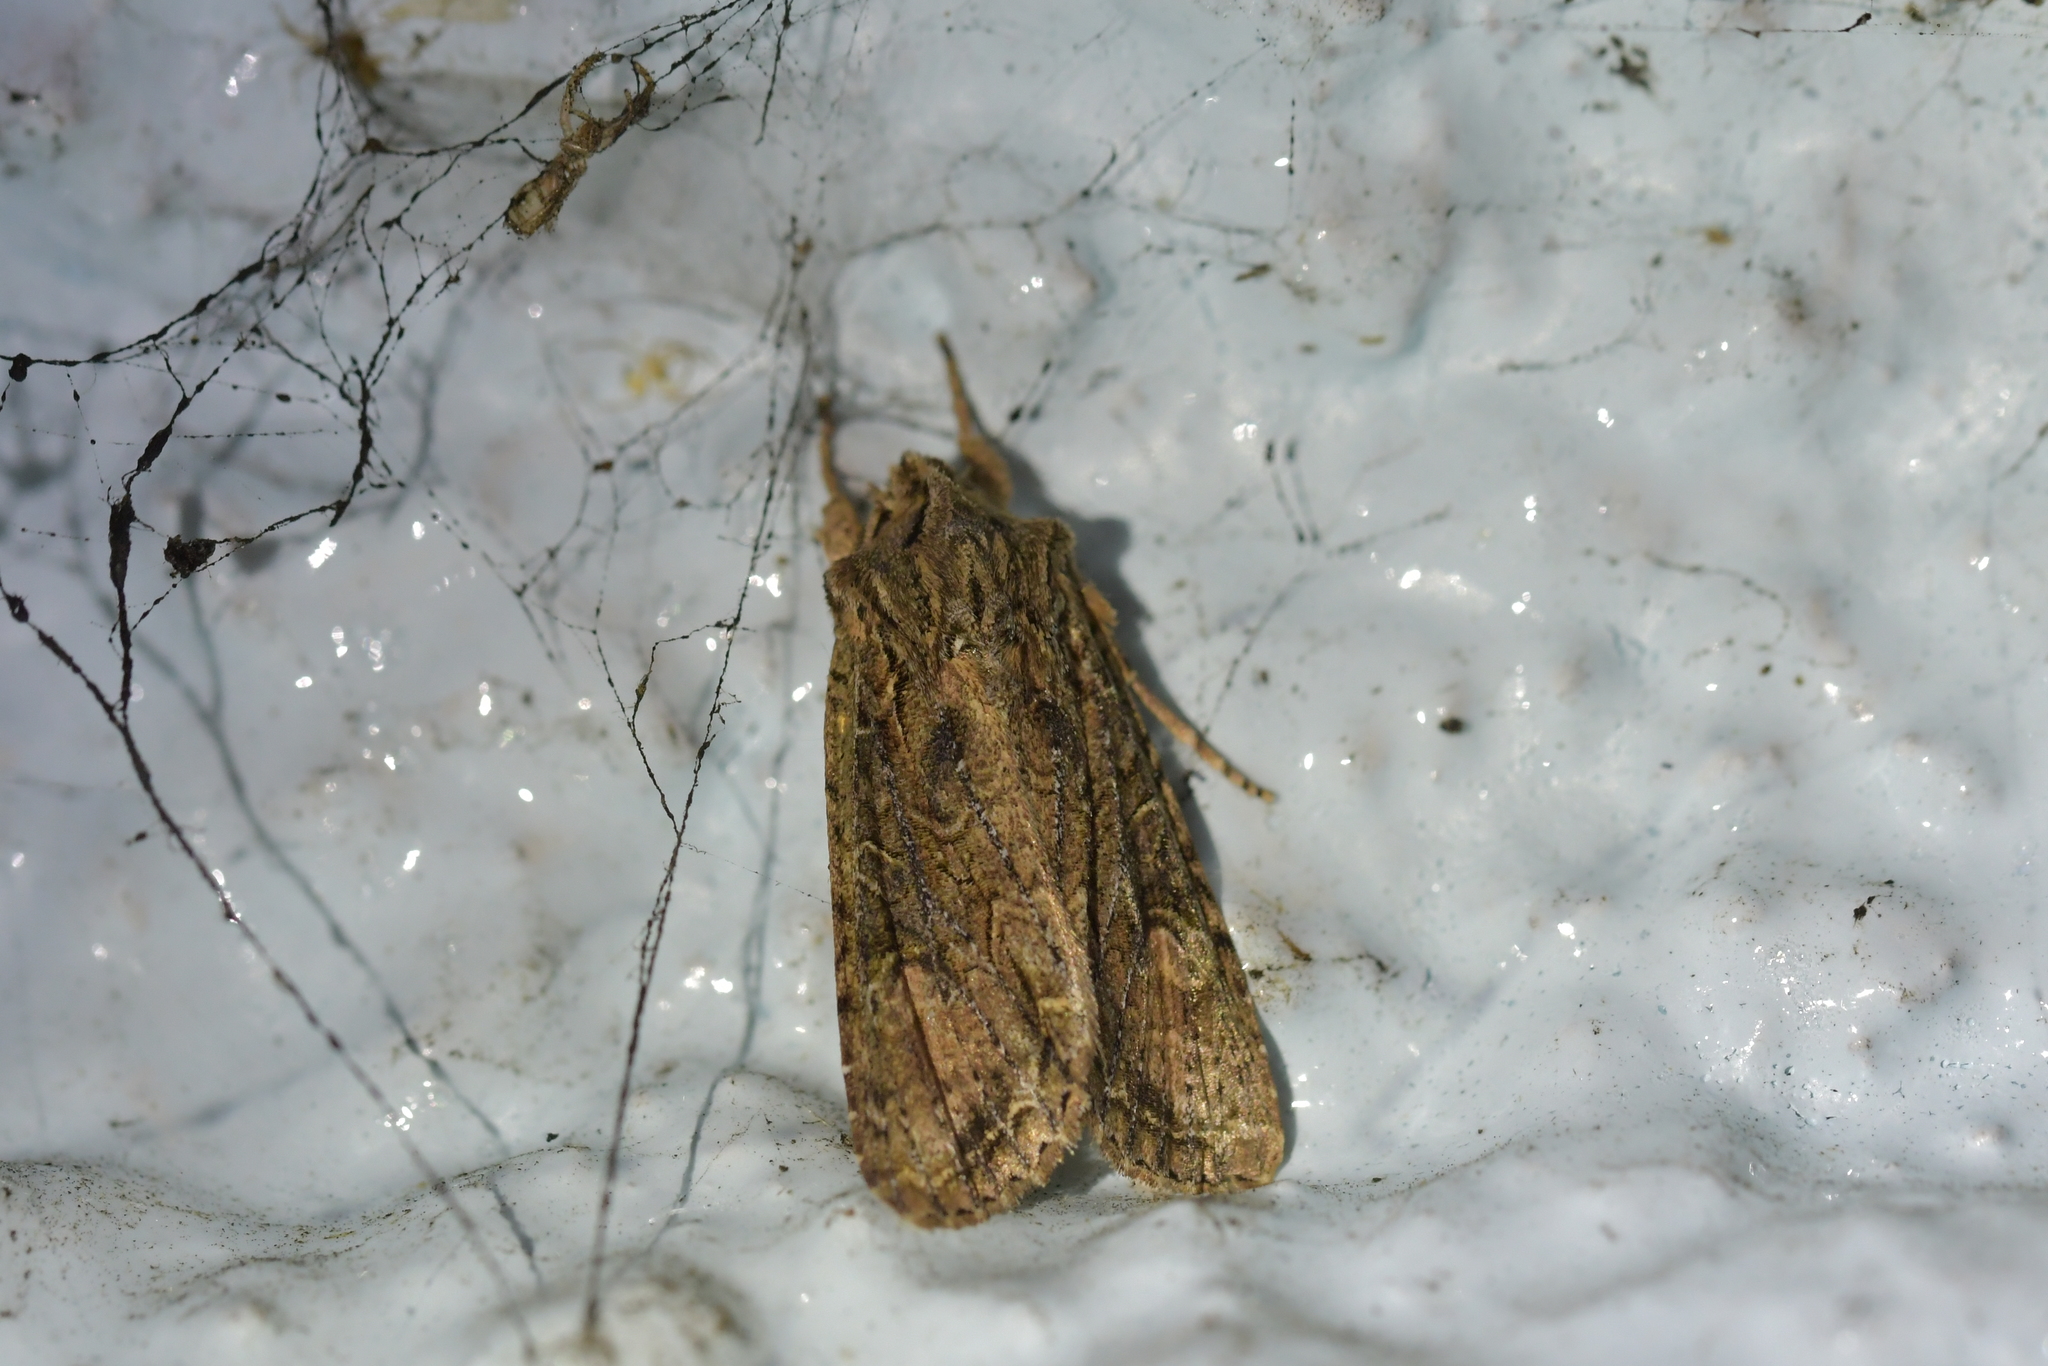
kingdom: Animalia
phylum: Arthropoda
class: Insecta
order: Lepidoptera
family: Noctuidae
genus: Ichneutica
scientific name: Ichneutica mutans
